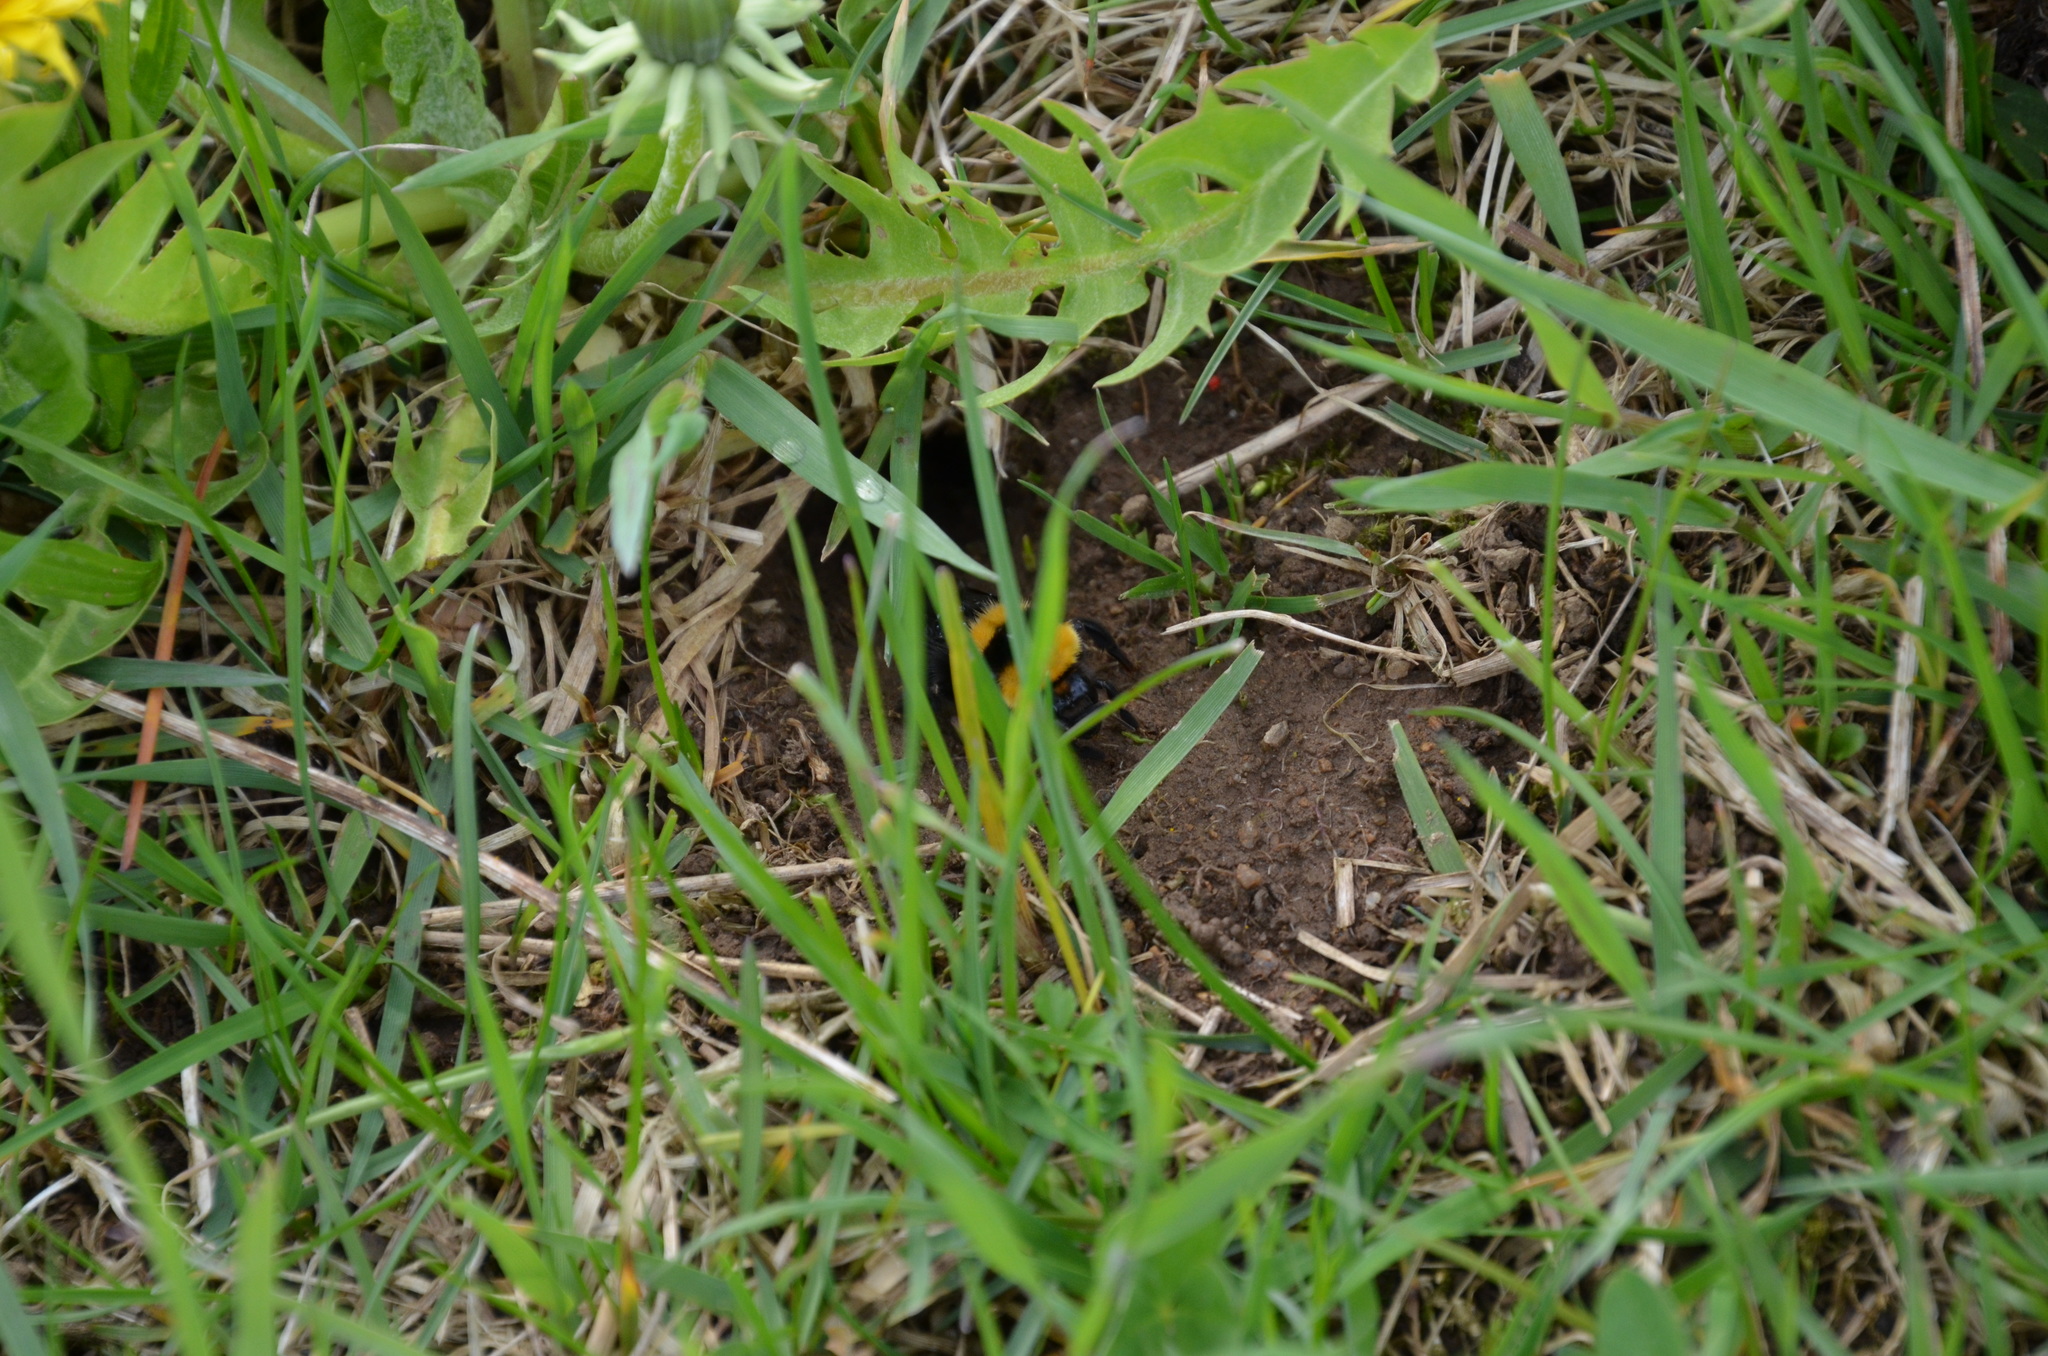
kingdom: Animalia
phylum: Arthropoda
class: Insecta
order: Hymenoptera
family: Apidae
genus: Bombus
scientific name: Bombus argillaceus
